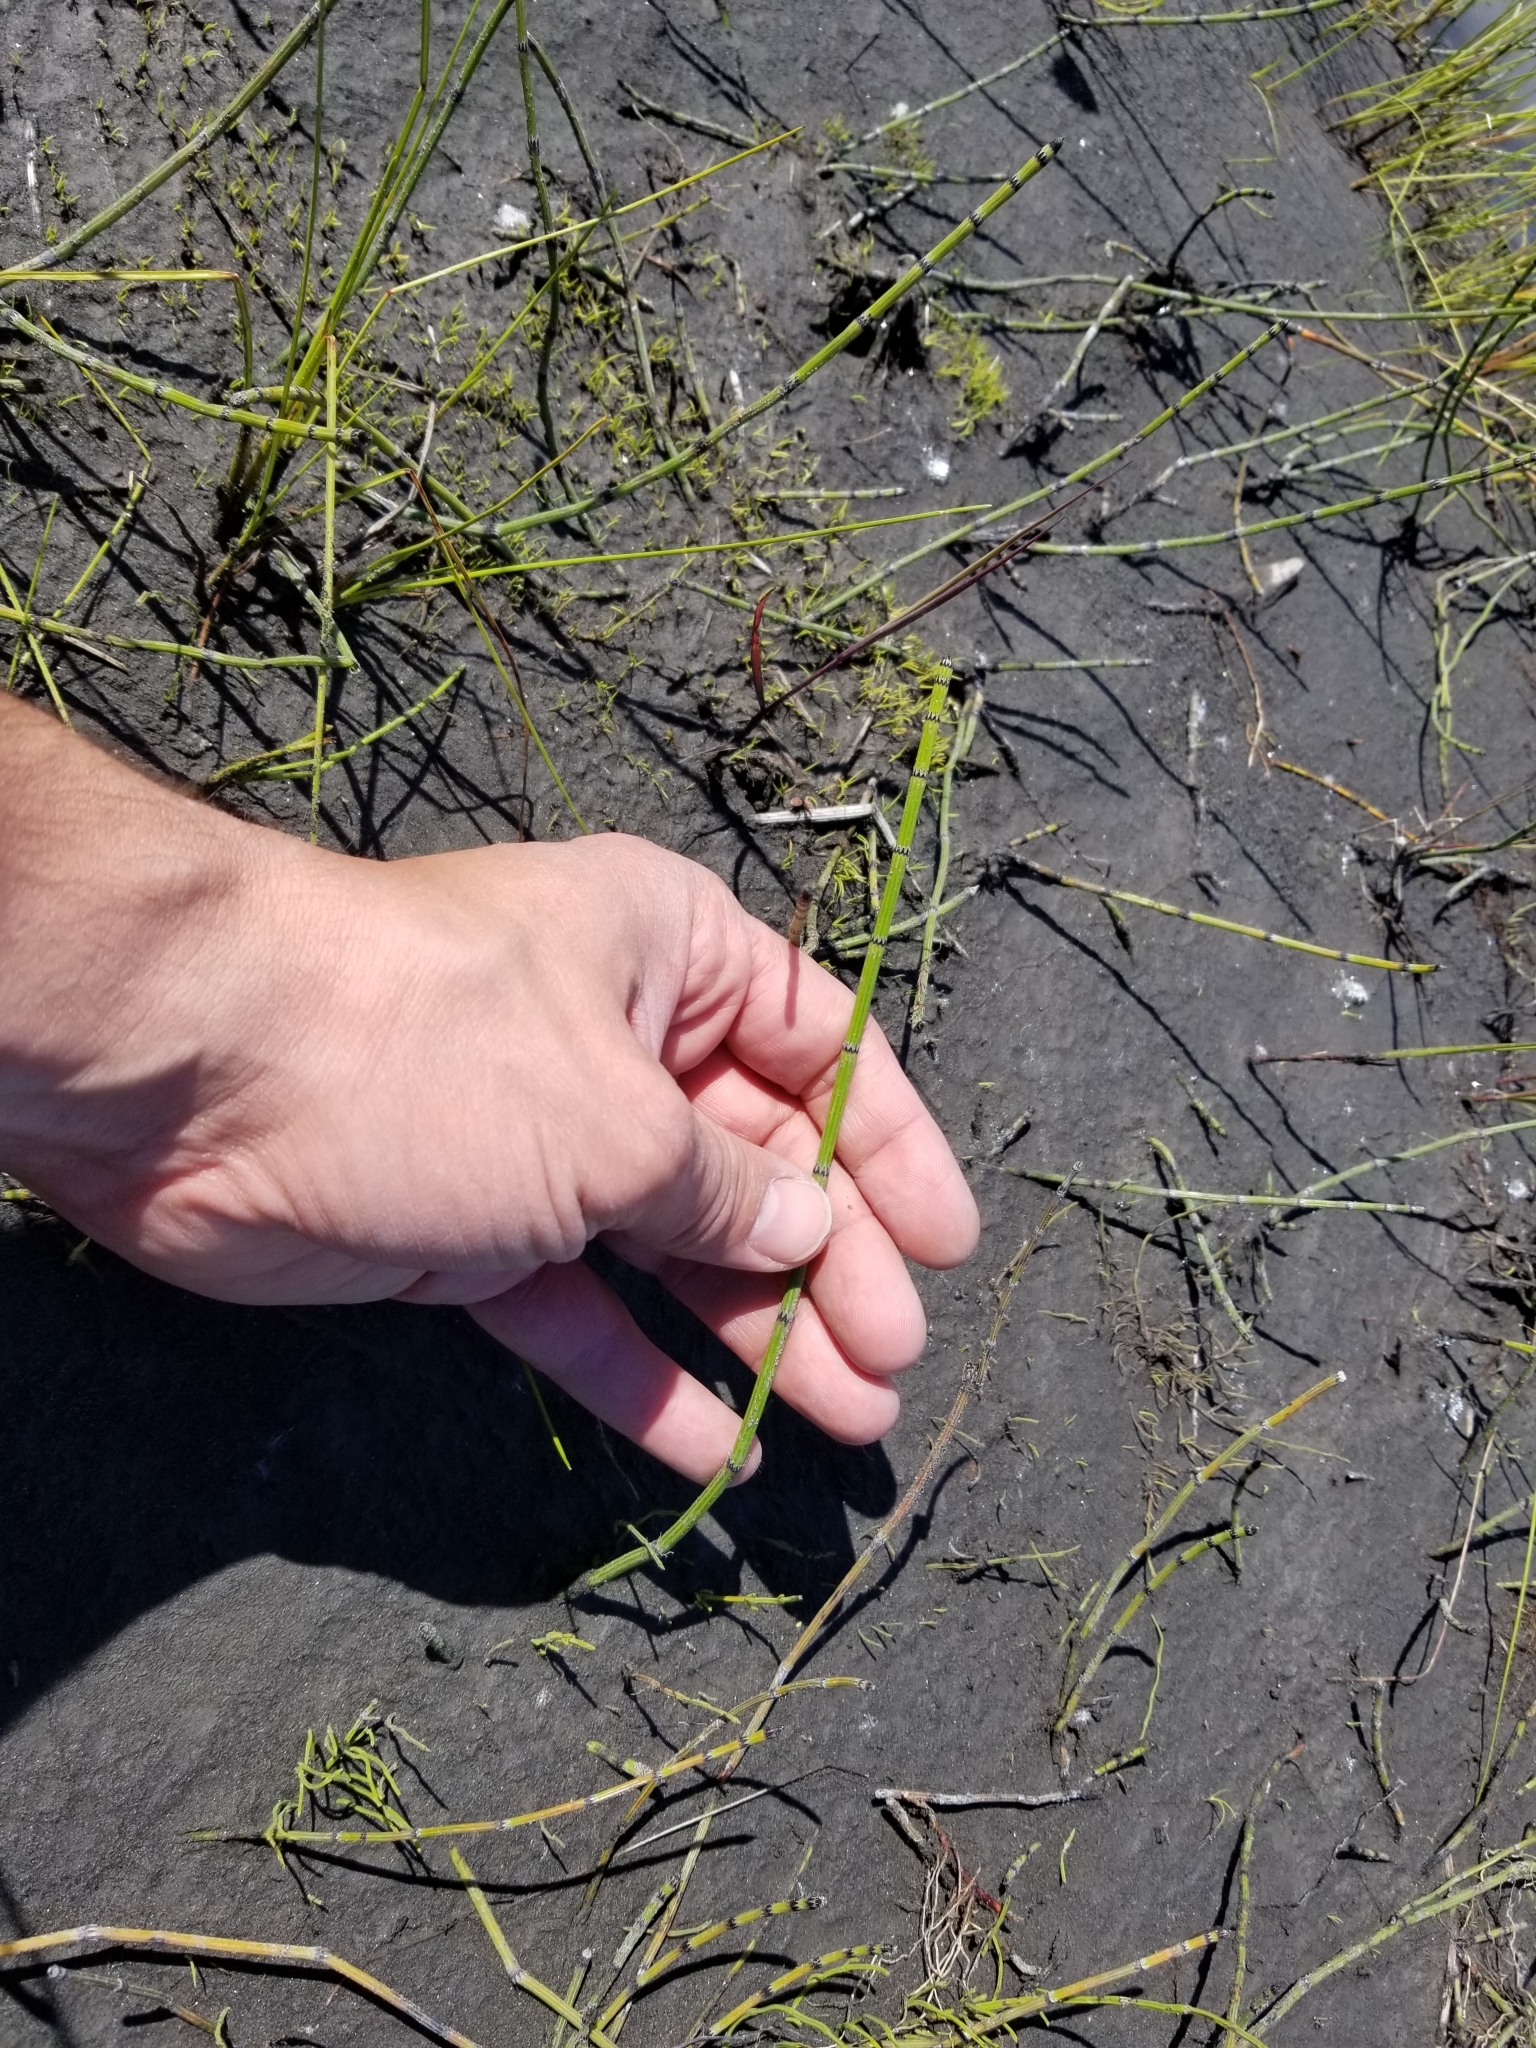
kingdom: Plantae
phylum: Tracheophyta
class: Polypodiopsida
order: Equisetales
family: Equisetaceae
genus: Equisetum
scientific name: Equisetum variegatum
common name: Variegated horsetail
